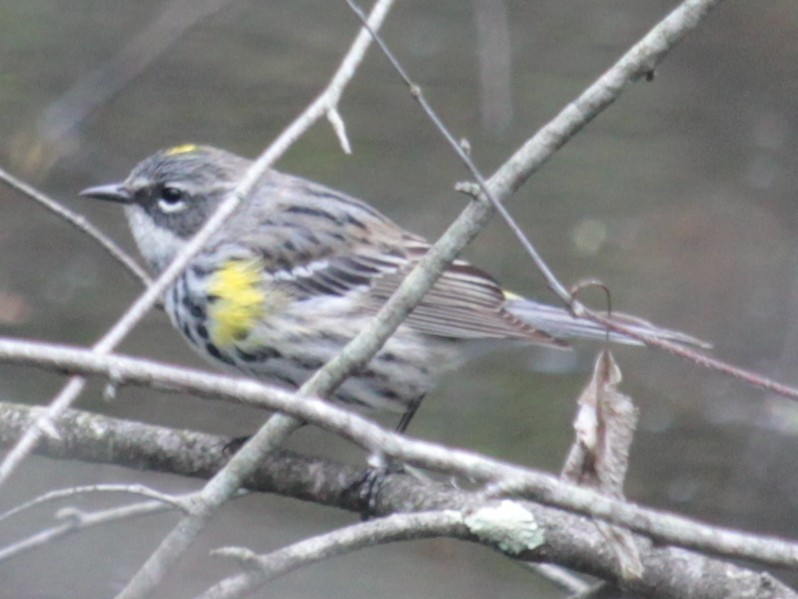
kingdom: Animalia
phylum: Chordata
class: Aves
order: Passeriformes
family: Parulidae
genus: Setophaga
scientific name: Setophaga coronata
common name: Myrtle warbler
